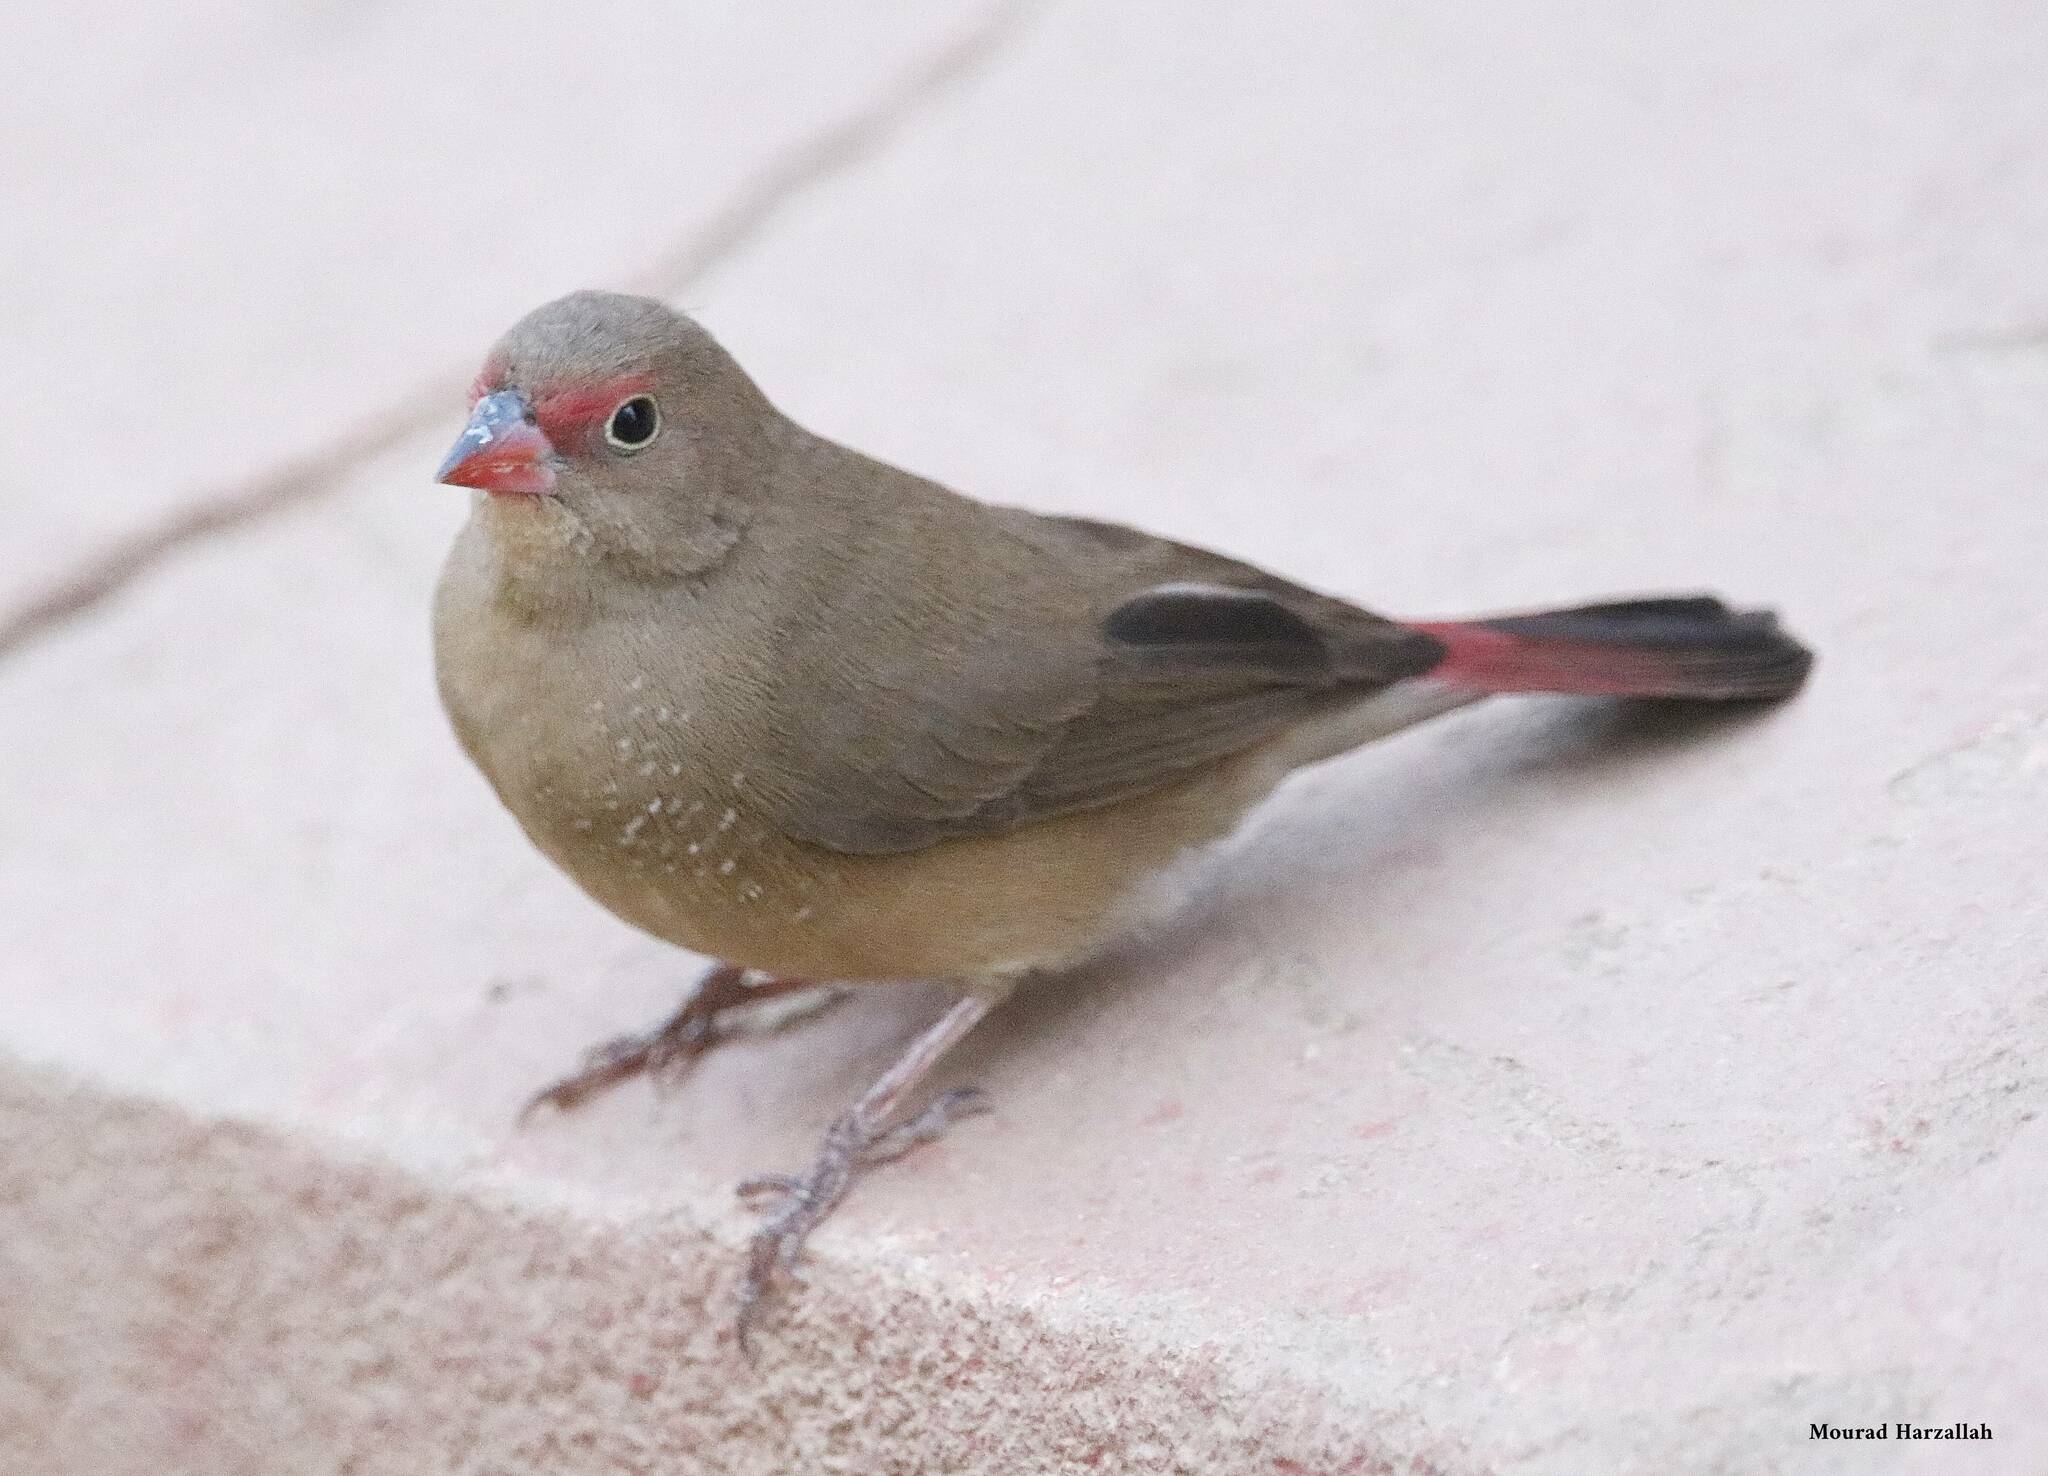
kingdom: Animalia
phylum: Chordata
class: Aves
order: Passeriformes
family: Estrildidae
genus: Lagonosticta
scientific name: Lagonosticta senegala
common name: Red-billed firefinch
